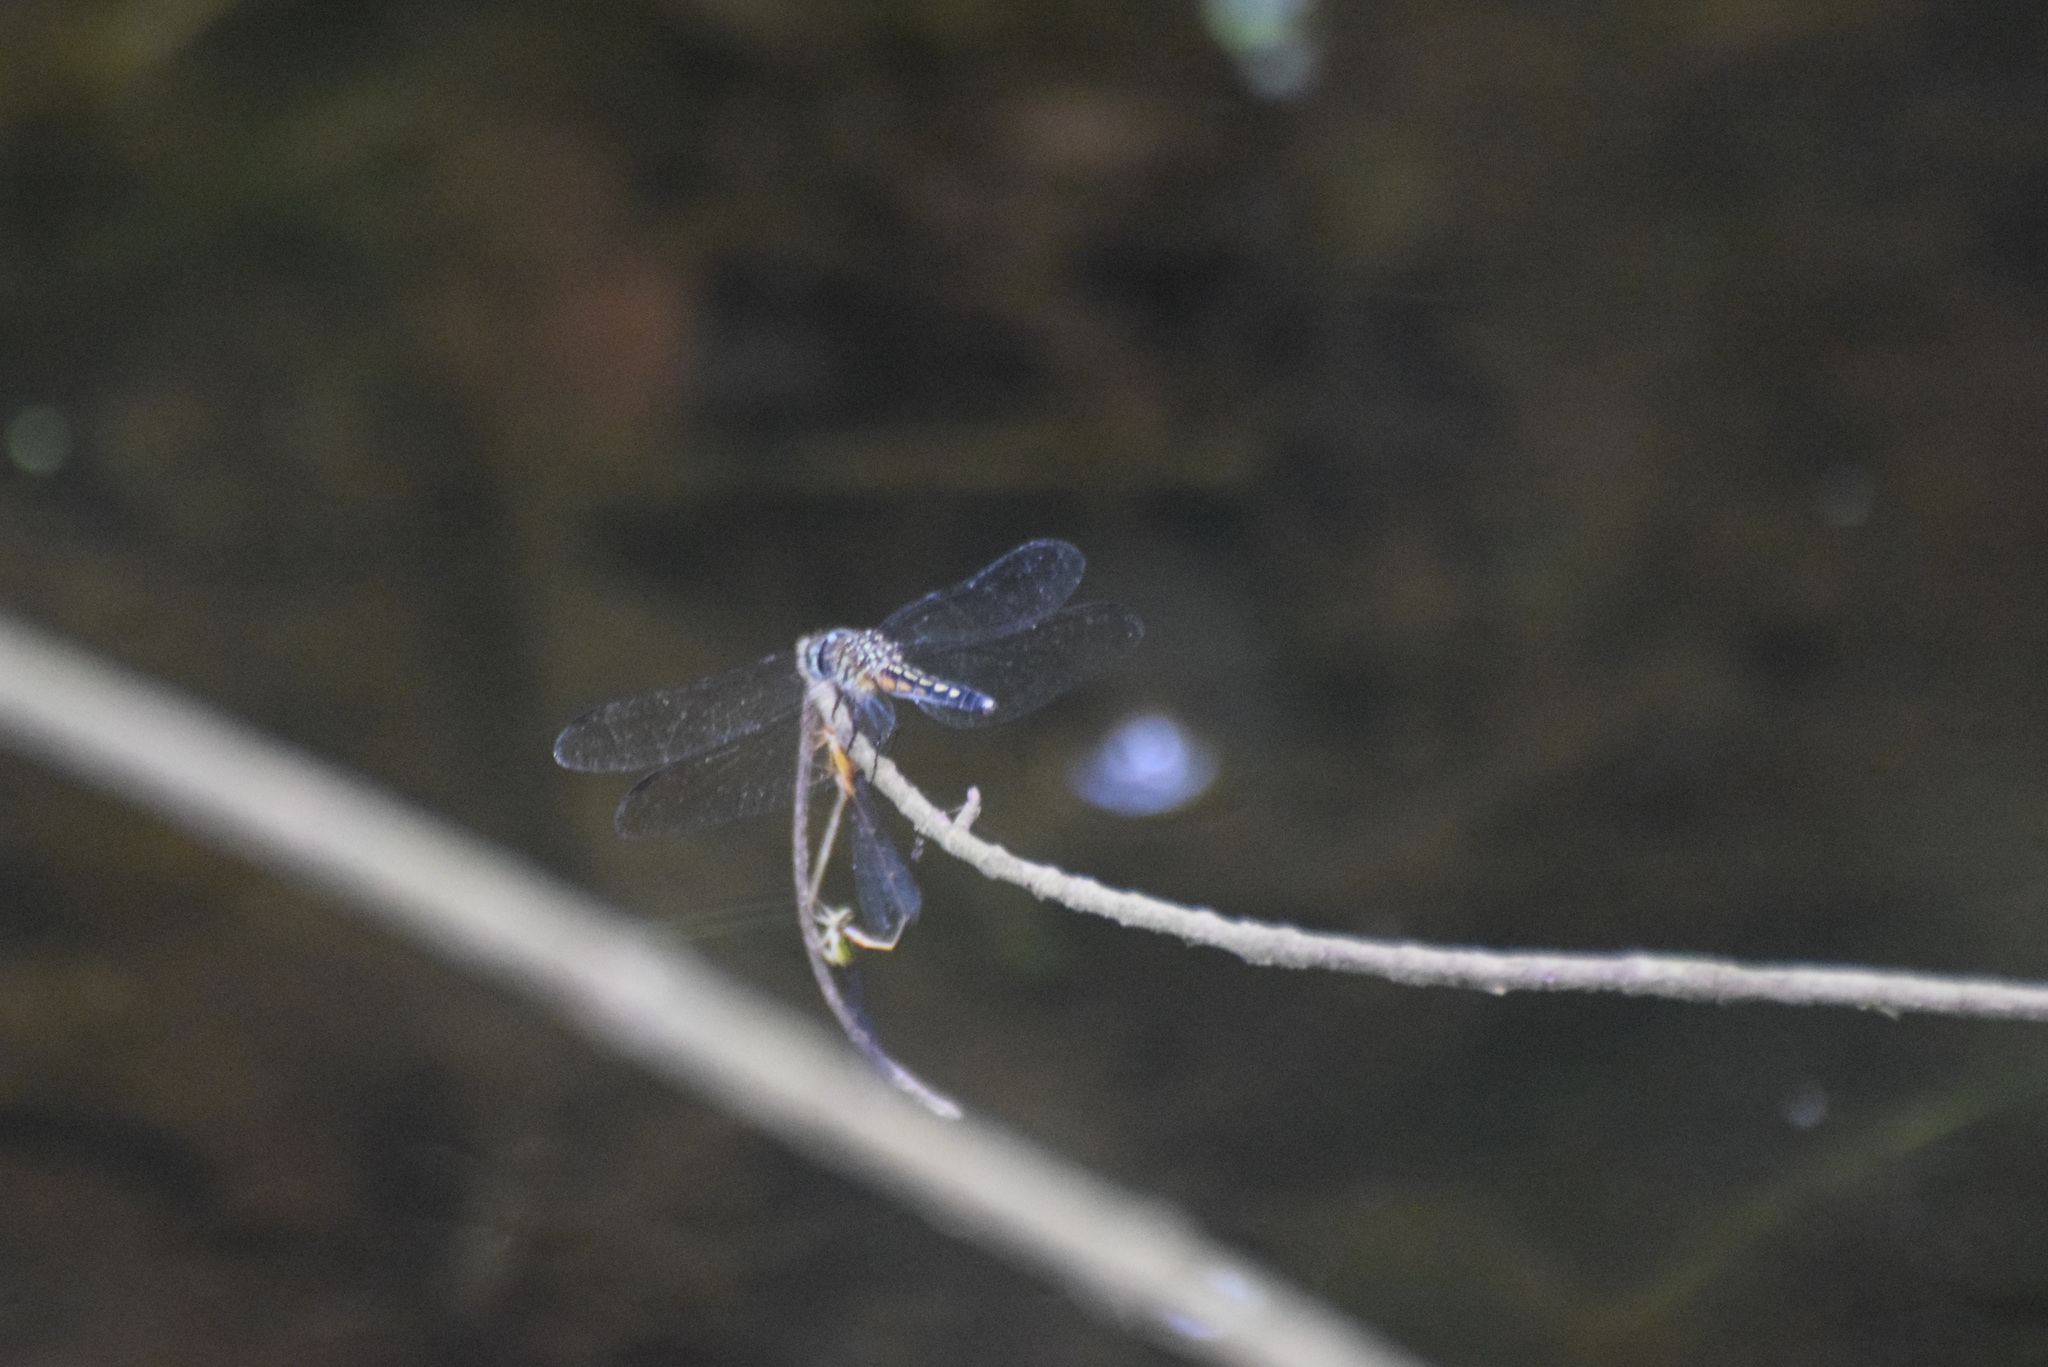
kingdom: Animalia
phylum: Arthropoda
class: Insecta
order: Odonata
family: Libellulidae
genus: Pachydiplax
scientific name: Pachydiplax longipennis
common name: Blue dasher
